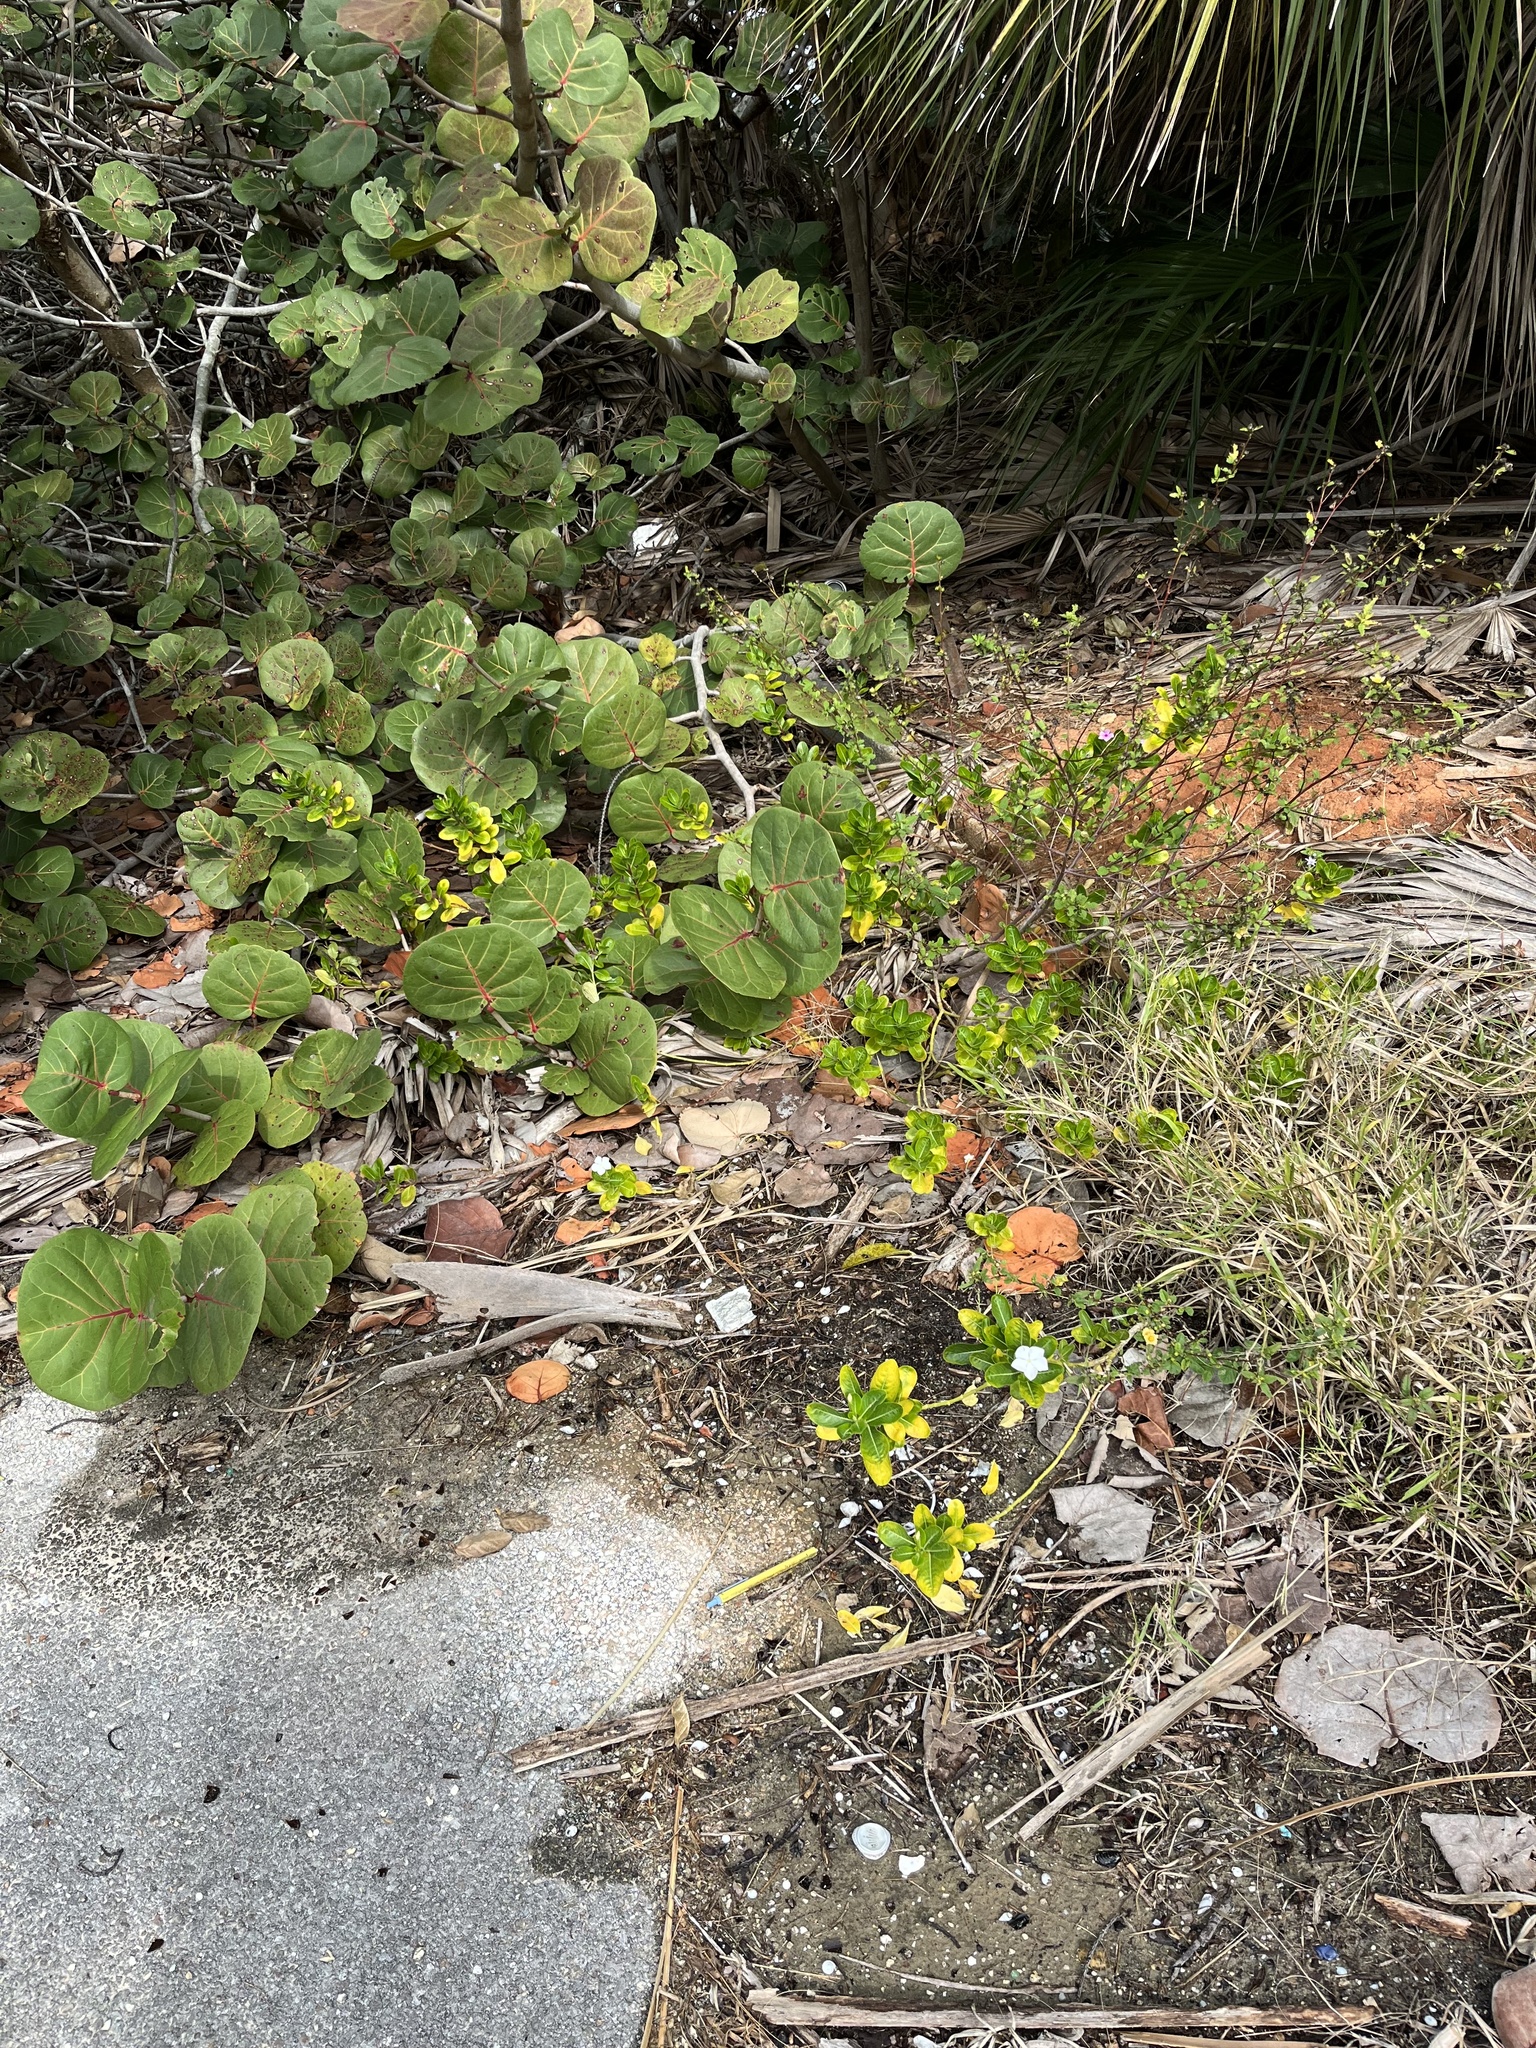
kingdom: Plantae
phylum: Tracheophyta
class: Magnoliopsida
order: Gentianales
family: Apocynaceae
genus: Catharanthus
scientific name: Catharanthus roseus
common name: Madagascar periwinkle
